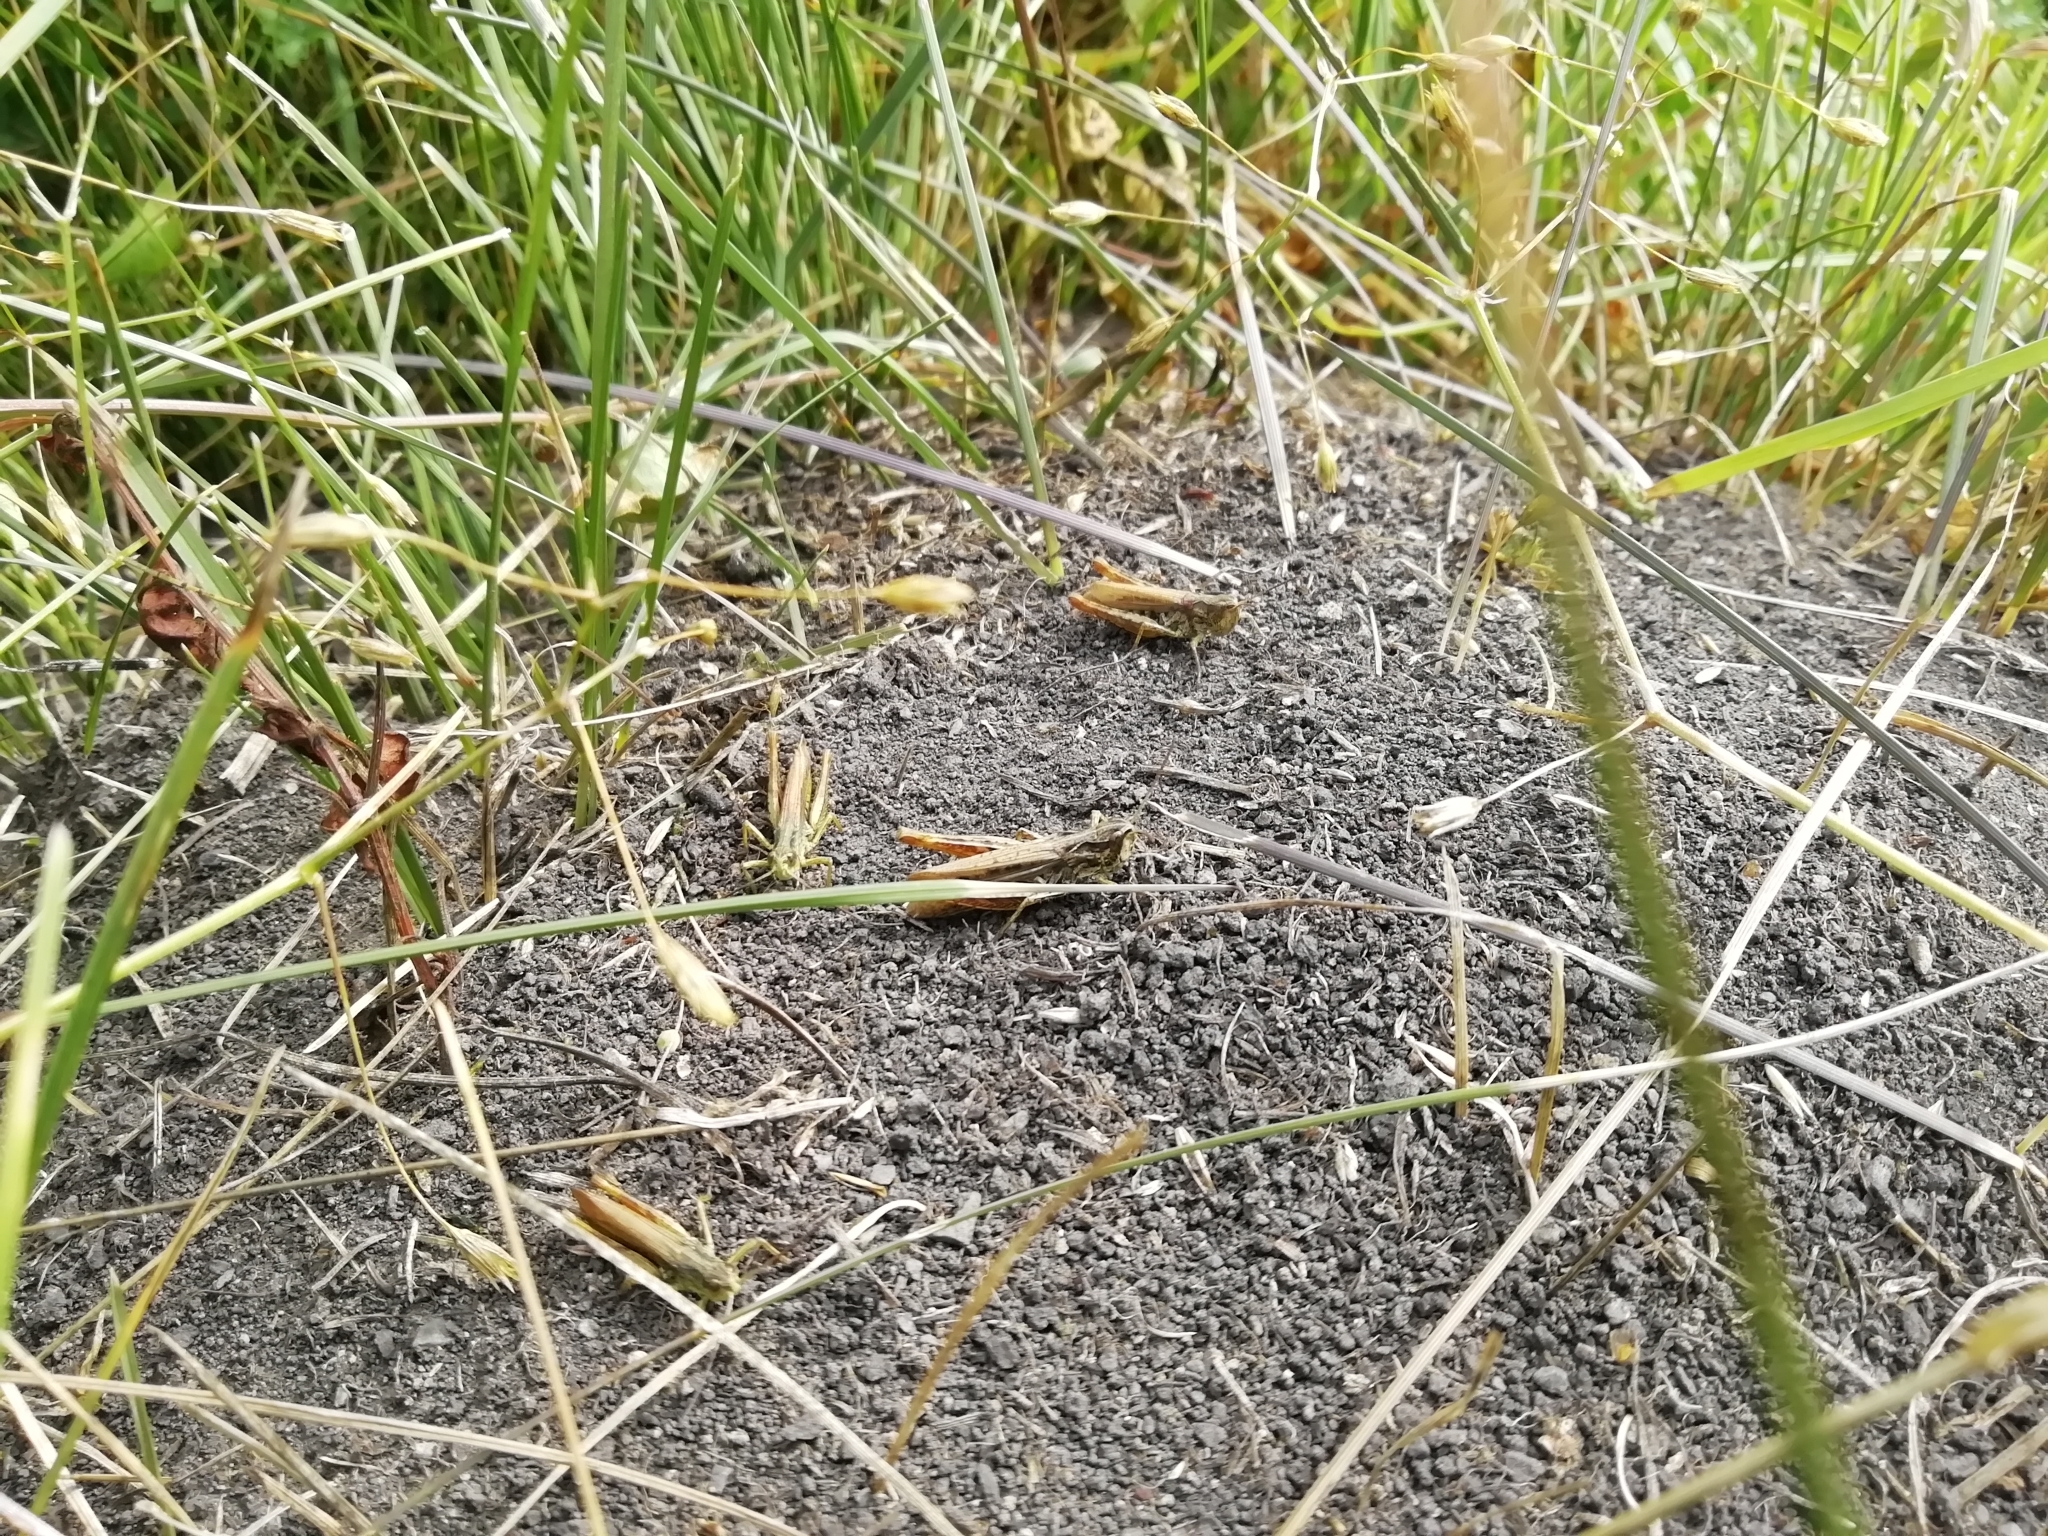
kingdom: Animalia
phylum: Arthropoda
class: Insecta
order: Orthoptera
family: Acrididae
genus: Chorthippus
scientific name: Chorthippus apricarius
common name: Upland field grasshopper
